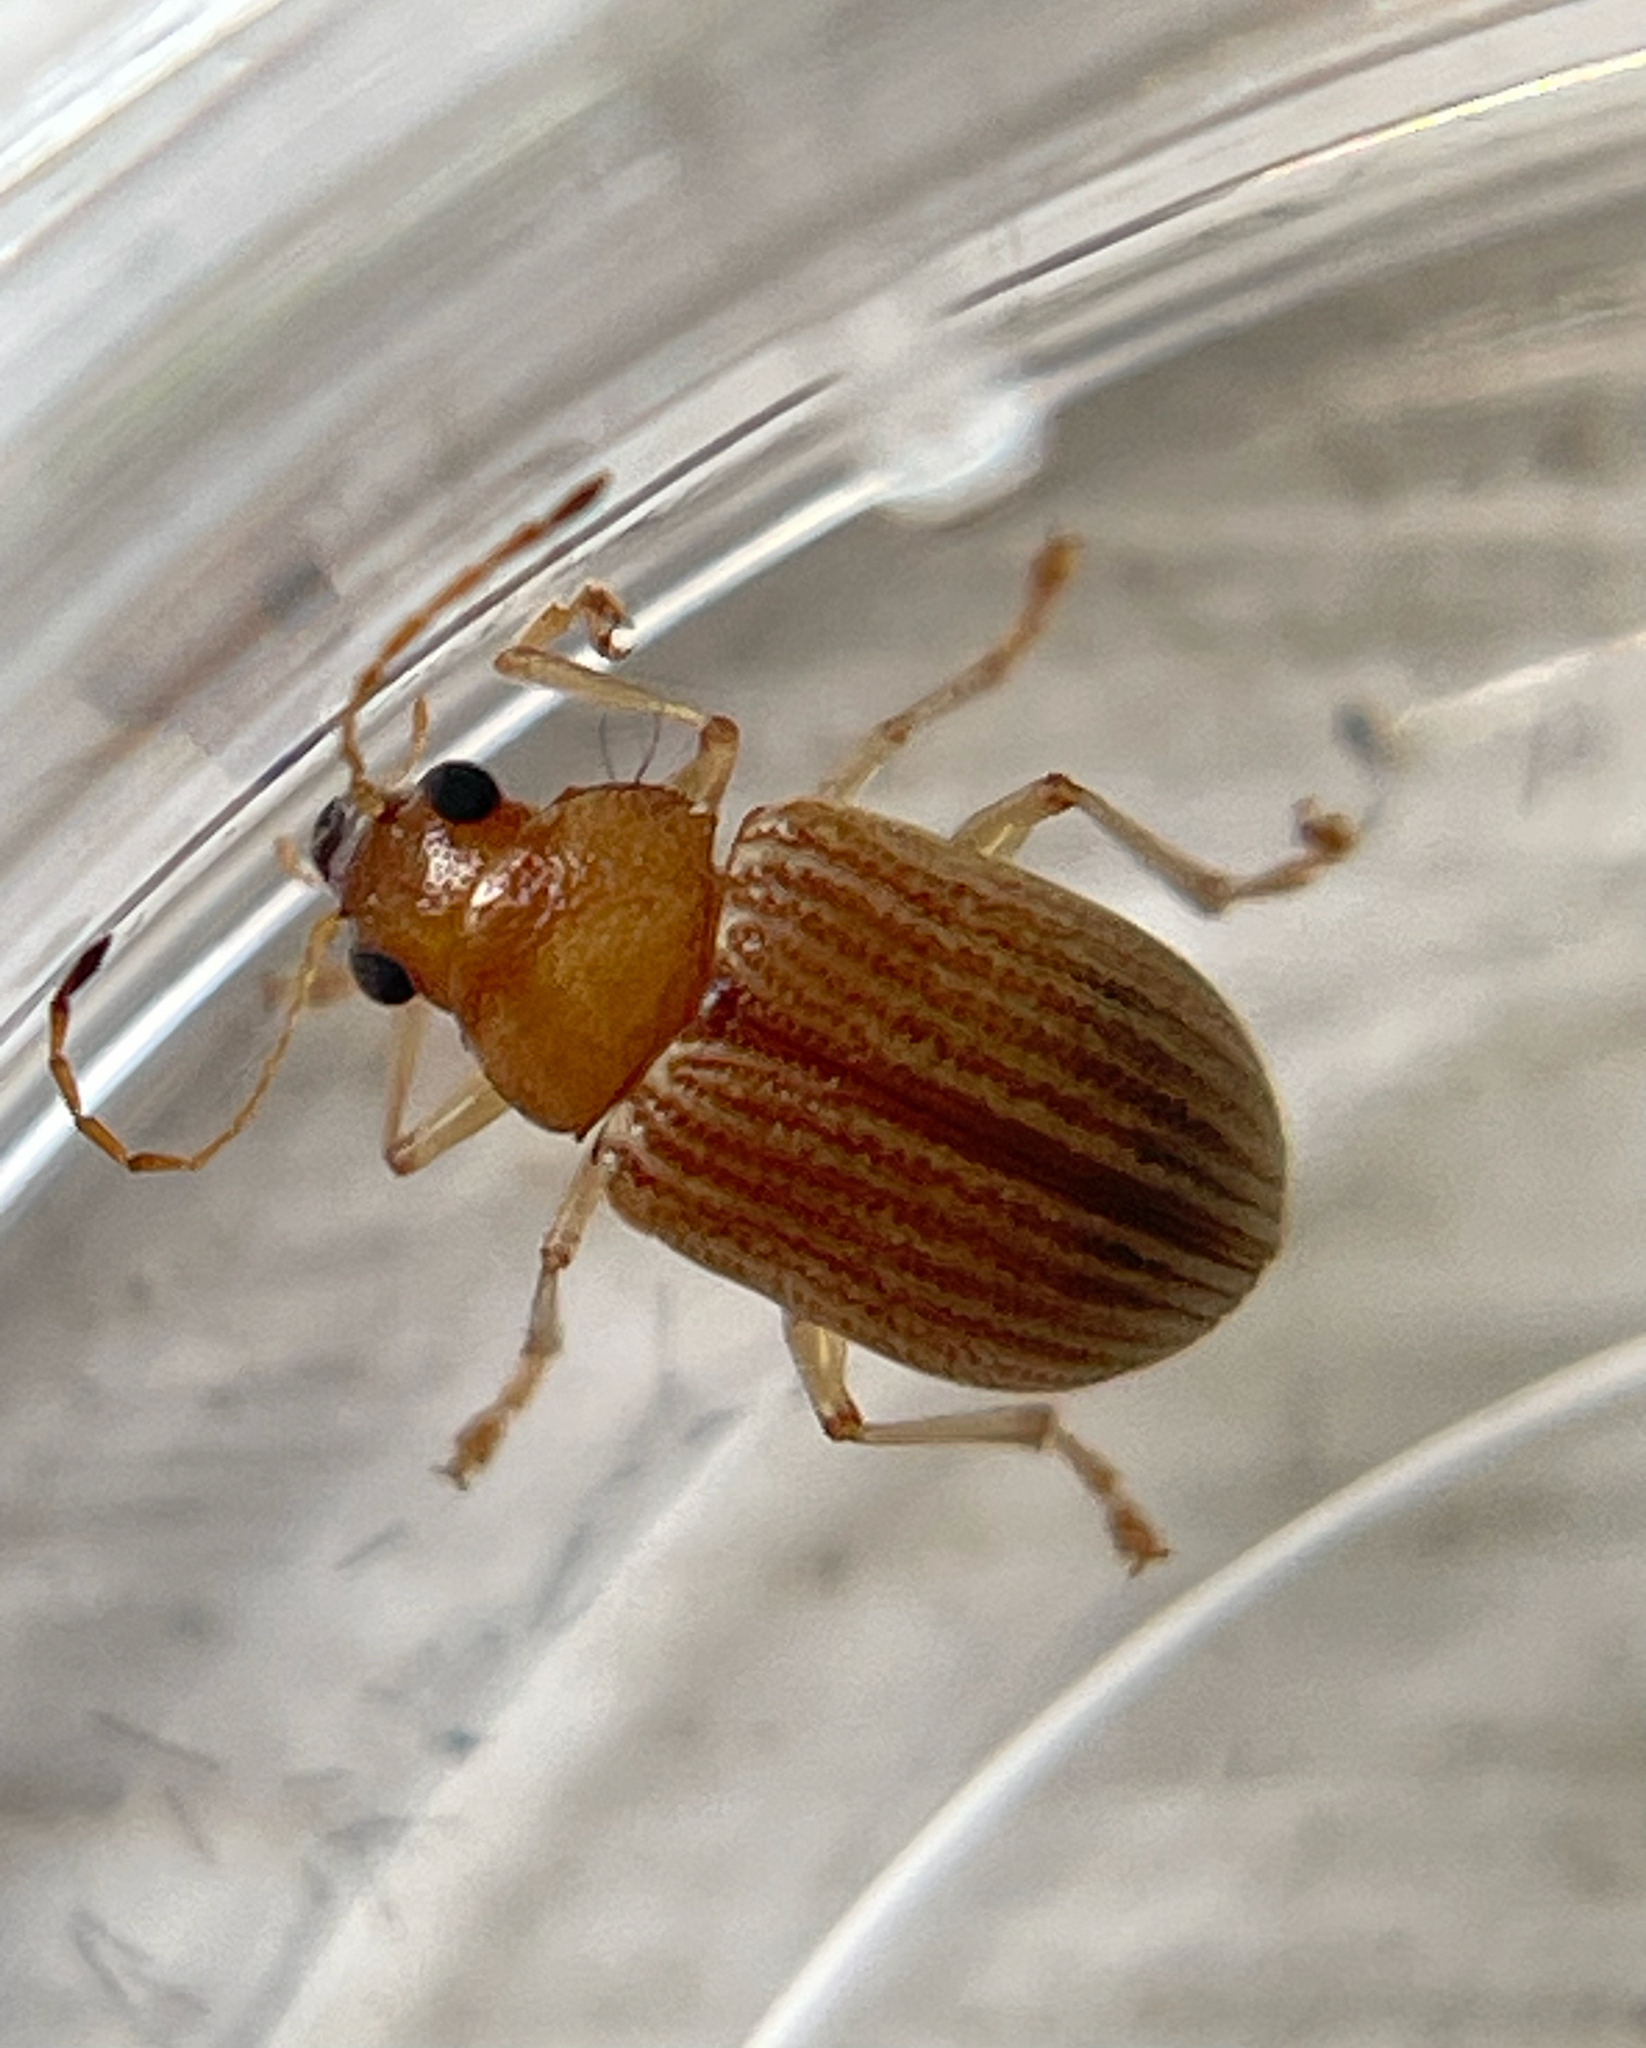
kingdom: Animalia
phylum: Arthropoda
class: Insecta
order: Coleoptera
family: Chrysomelidae
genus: Colaspis
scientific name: Colaspis brunnea
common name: Grape colaspis
